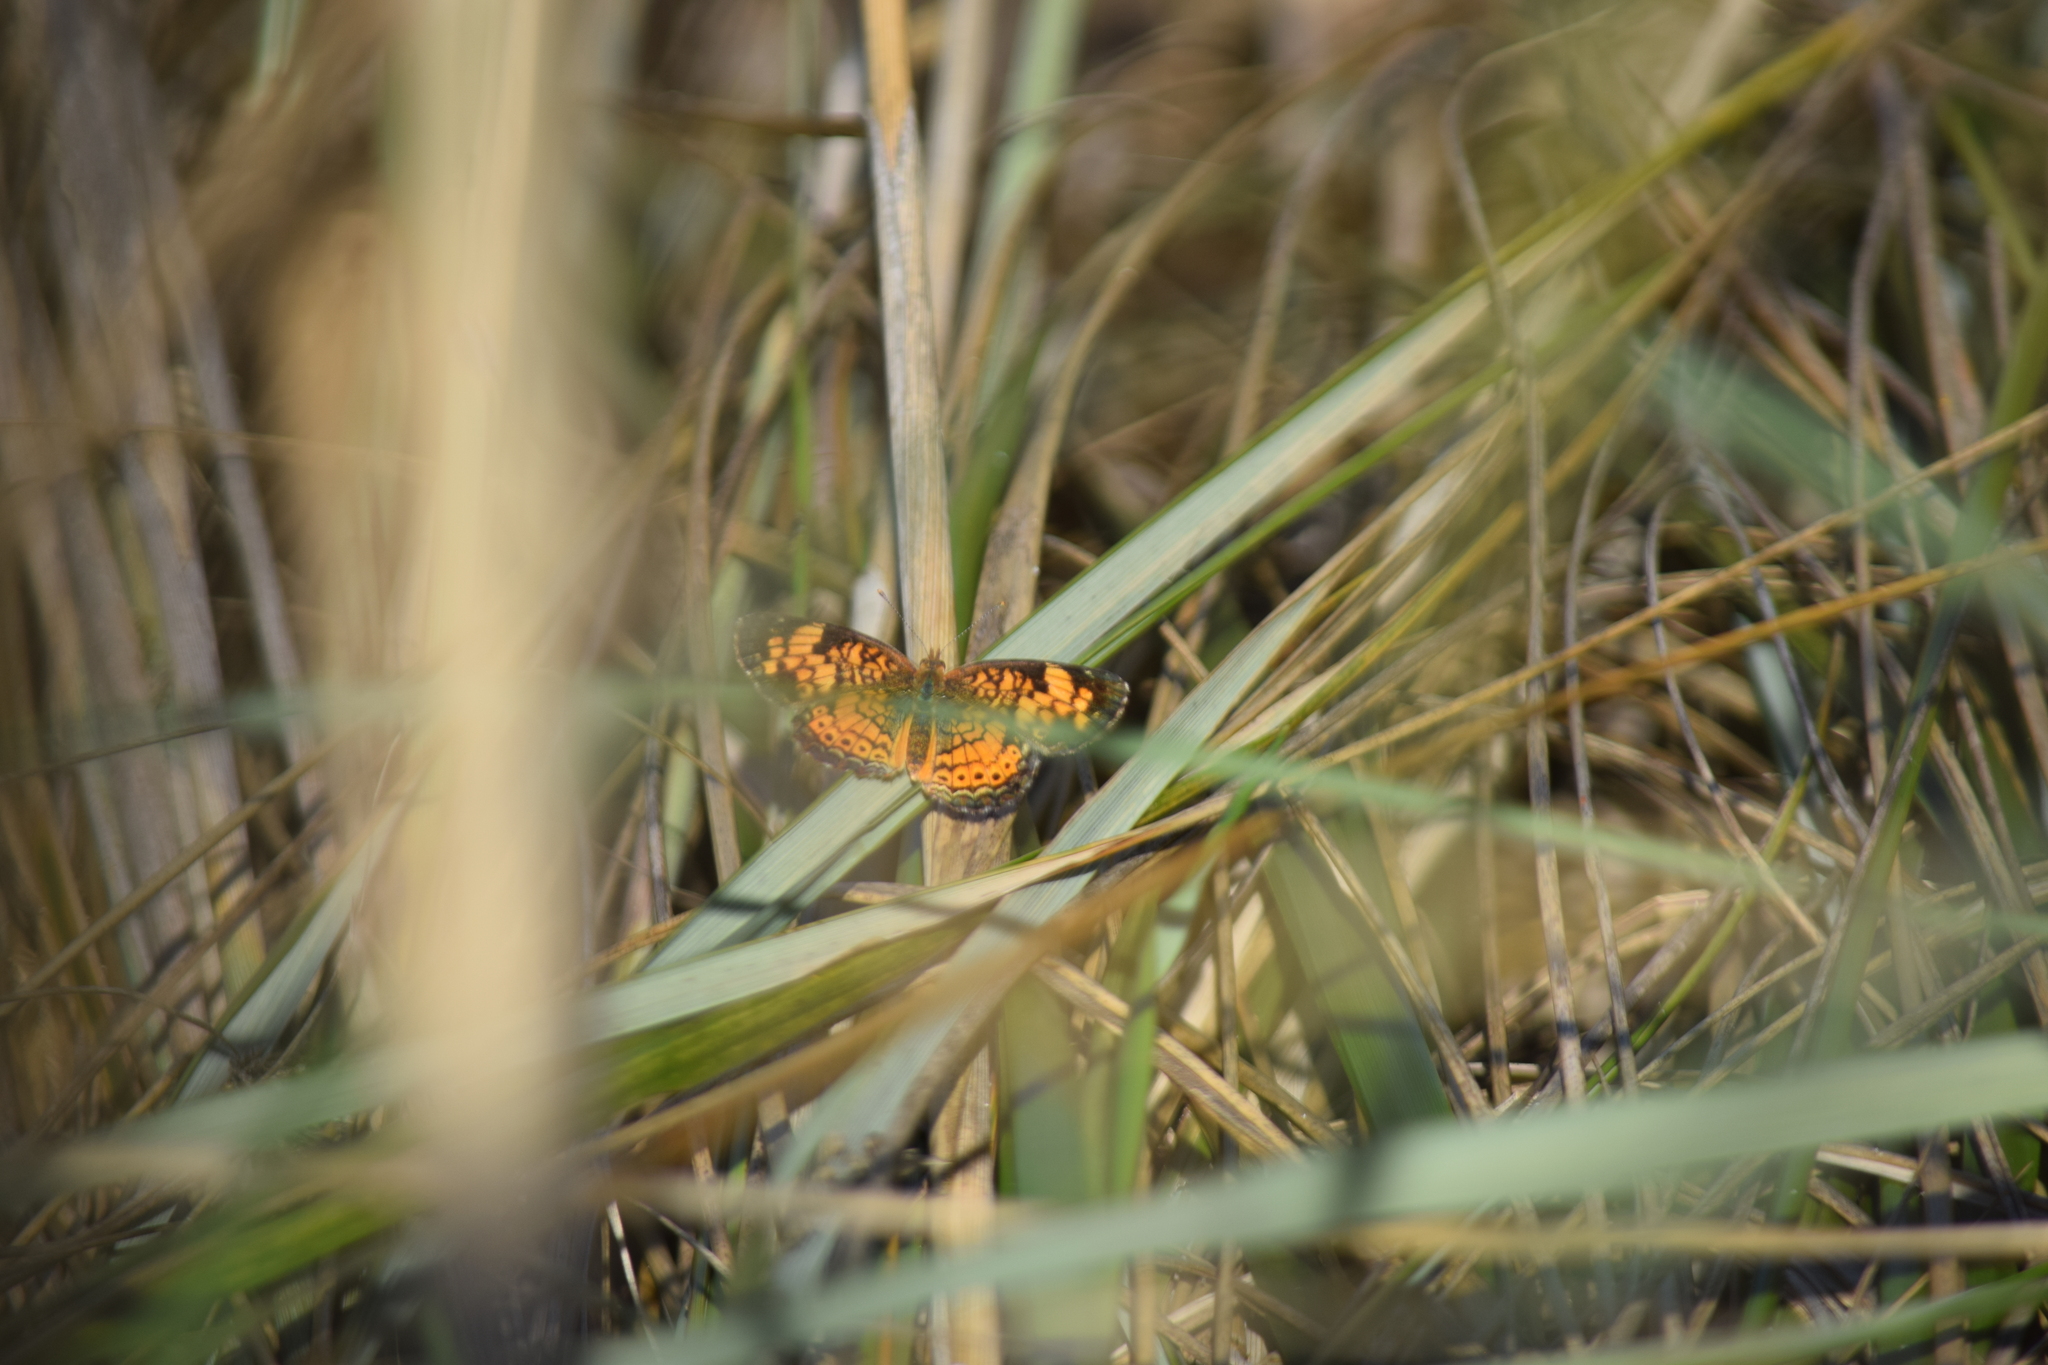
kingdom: Animalia
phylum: Arthropoda
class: Insecta
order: Lepidoptera
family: Nymphalidae
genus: Phyciodes
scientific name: Phyciodes tharos
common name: Pearl crescent
